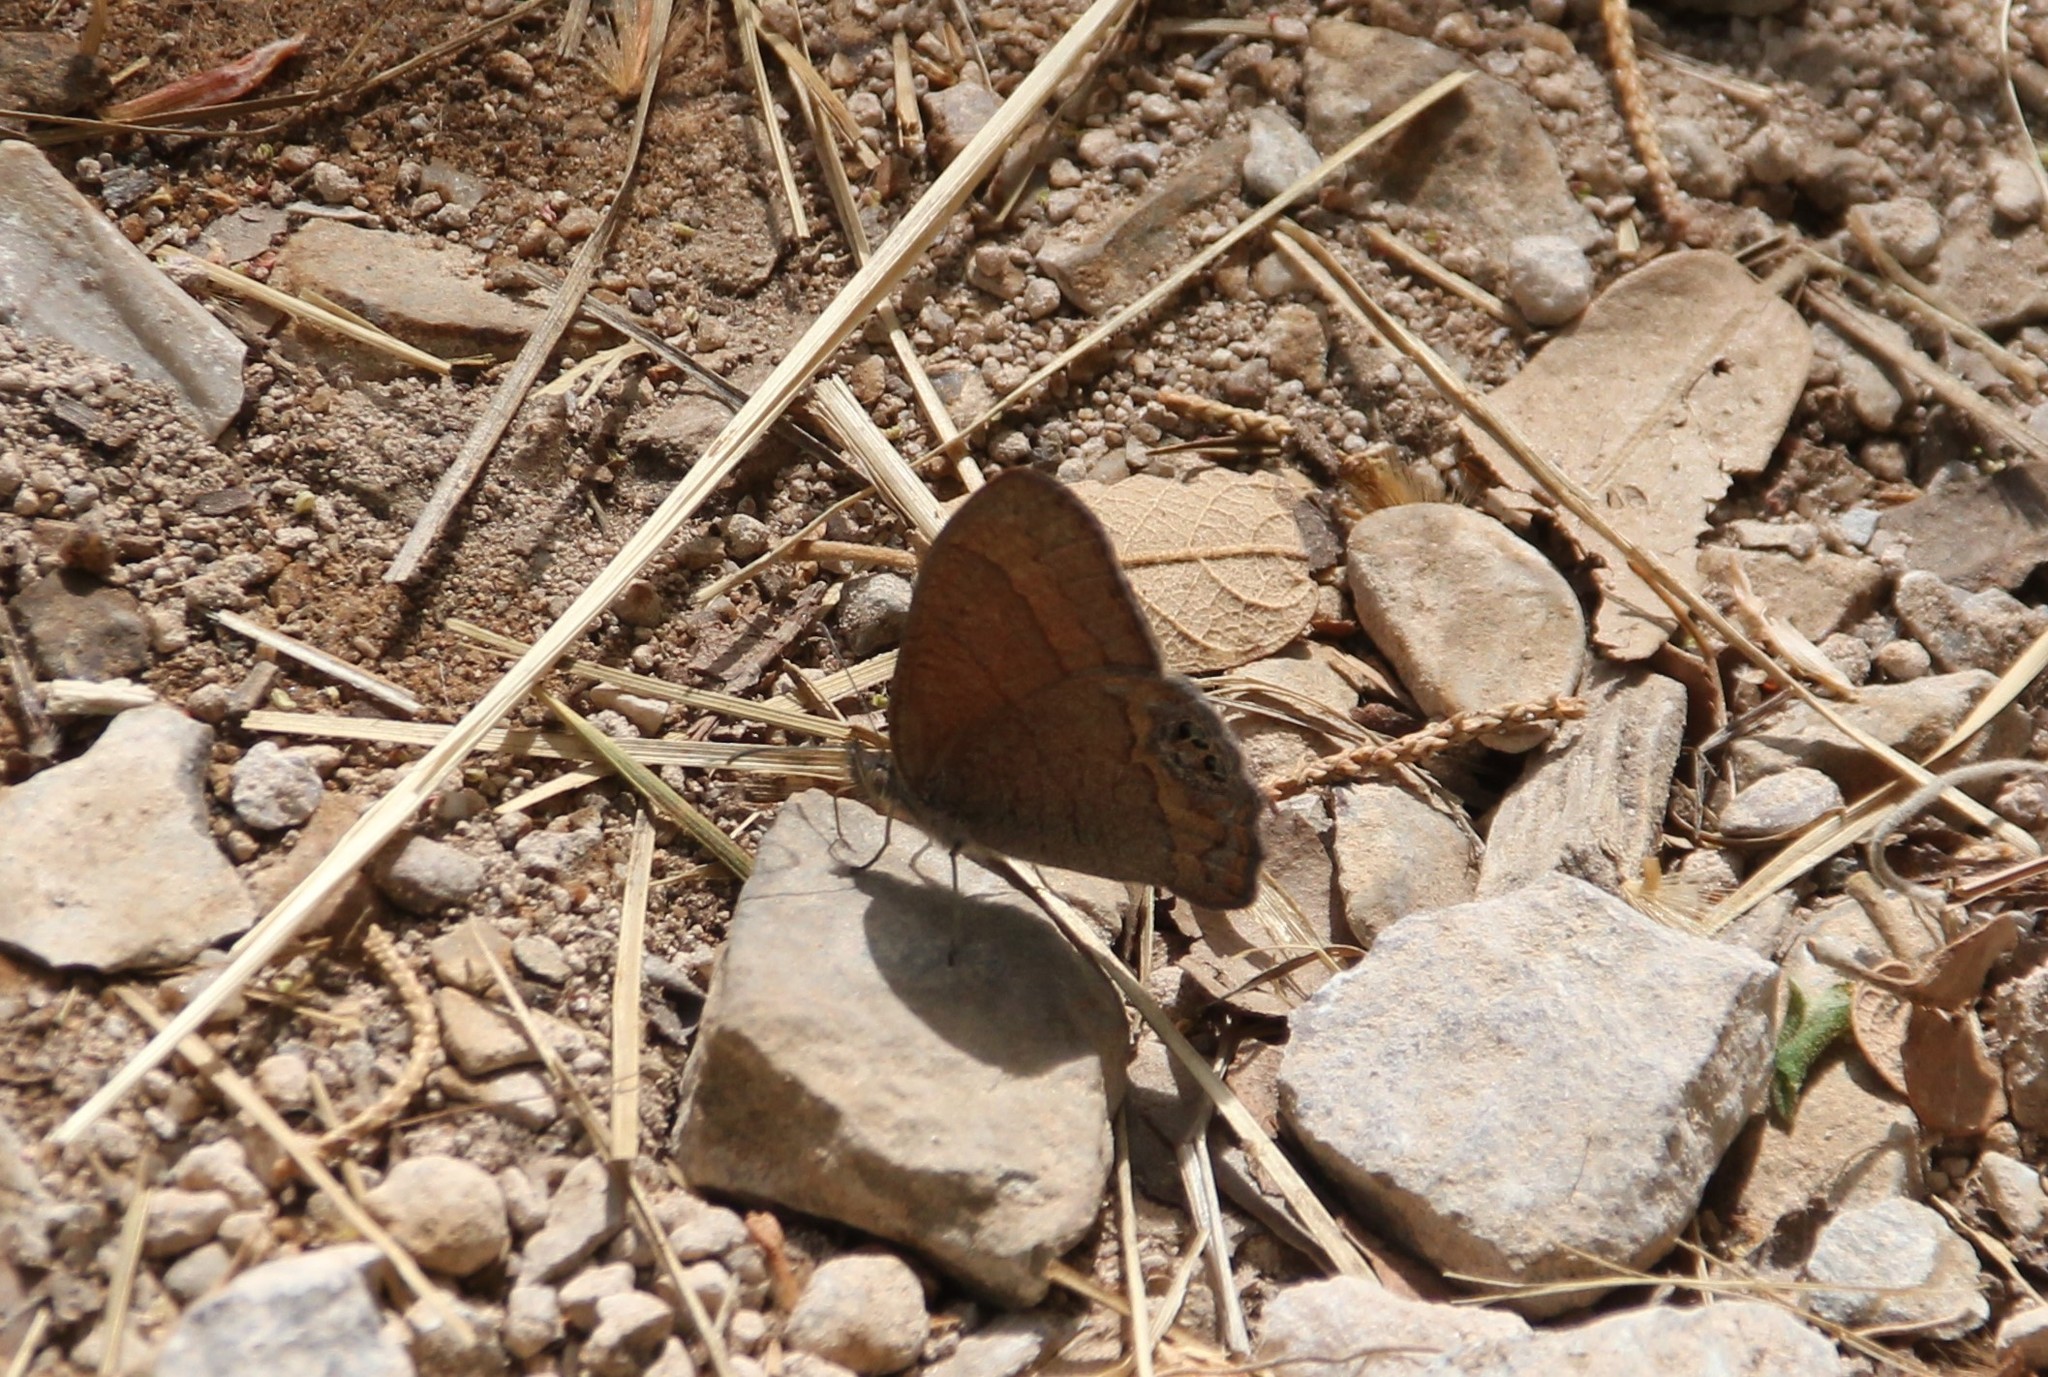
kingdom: Animalia
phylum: Arthropoda
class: Insecta
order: Lepidoptera
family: Nymphalidae
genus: Euptychia
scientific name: Euptychia pyracmon
